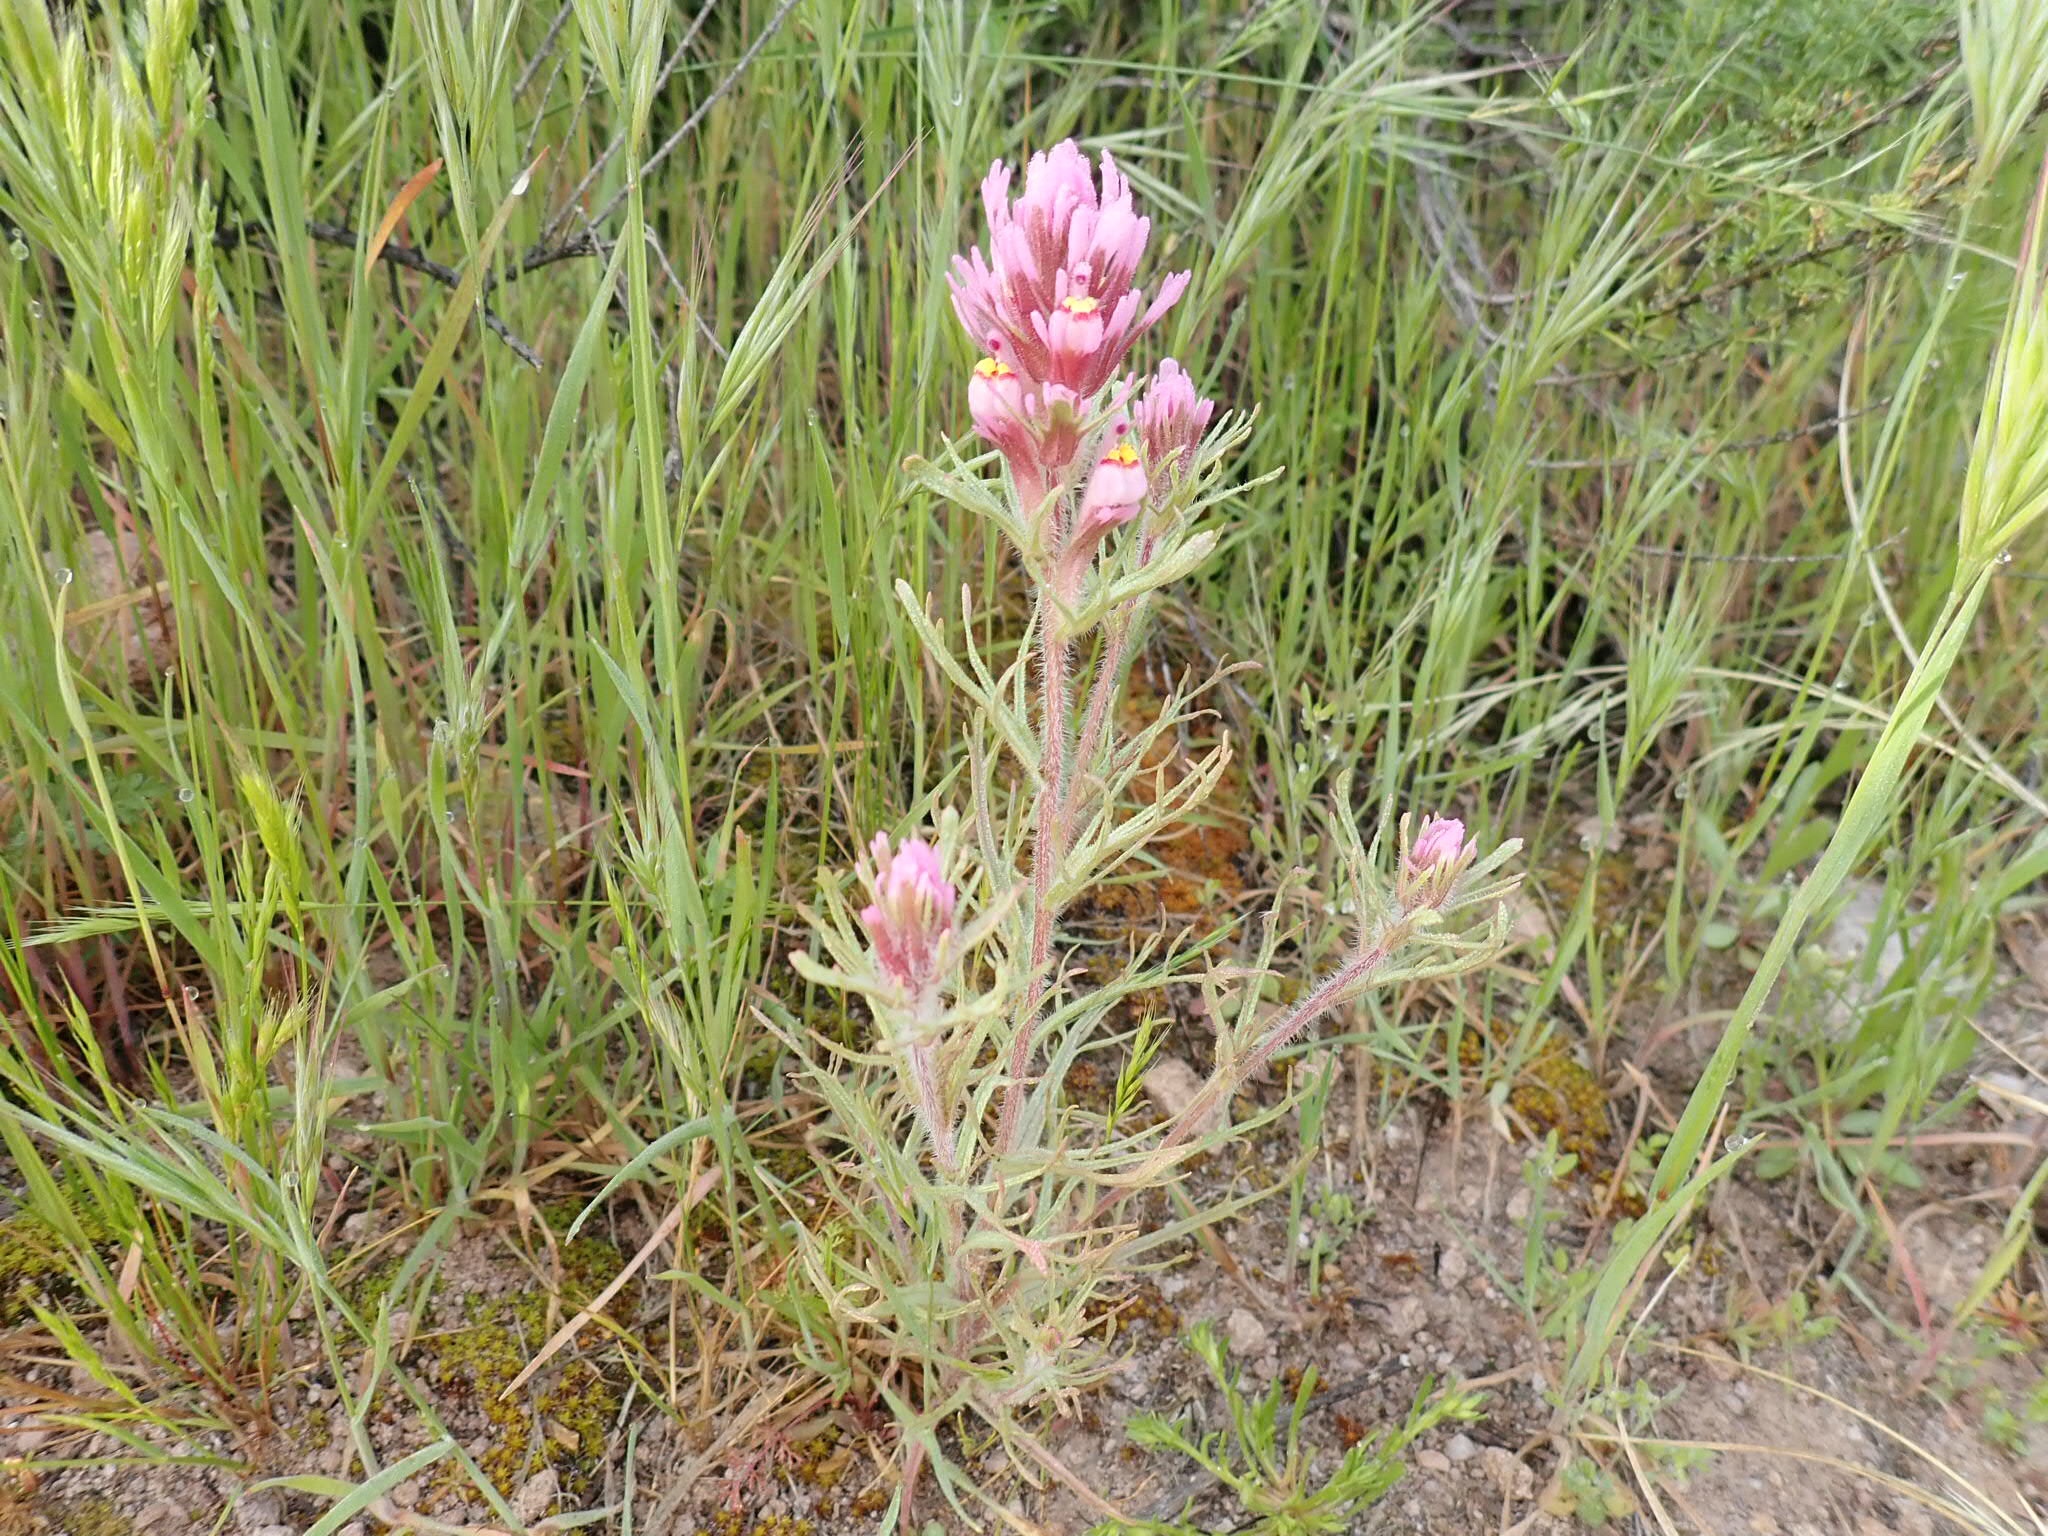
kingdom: Plantae
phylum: Tracheophyta
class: Magnoliopsida
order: Lamiales
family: Orobanchaceae
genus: Castilleja
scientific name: Castilleja exserta
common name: Purple owl-clover
